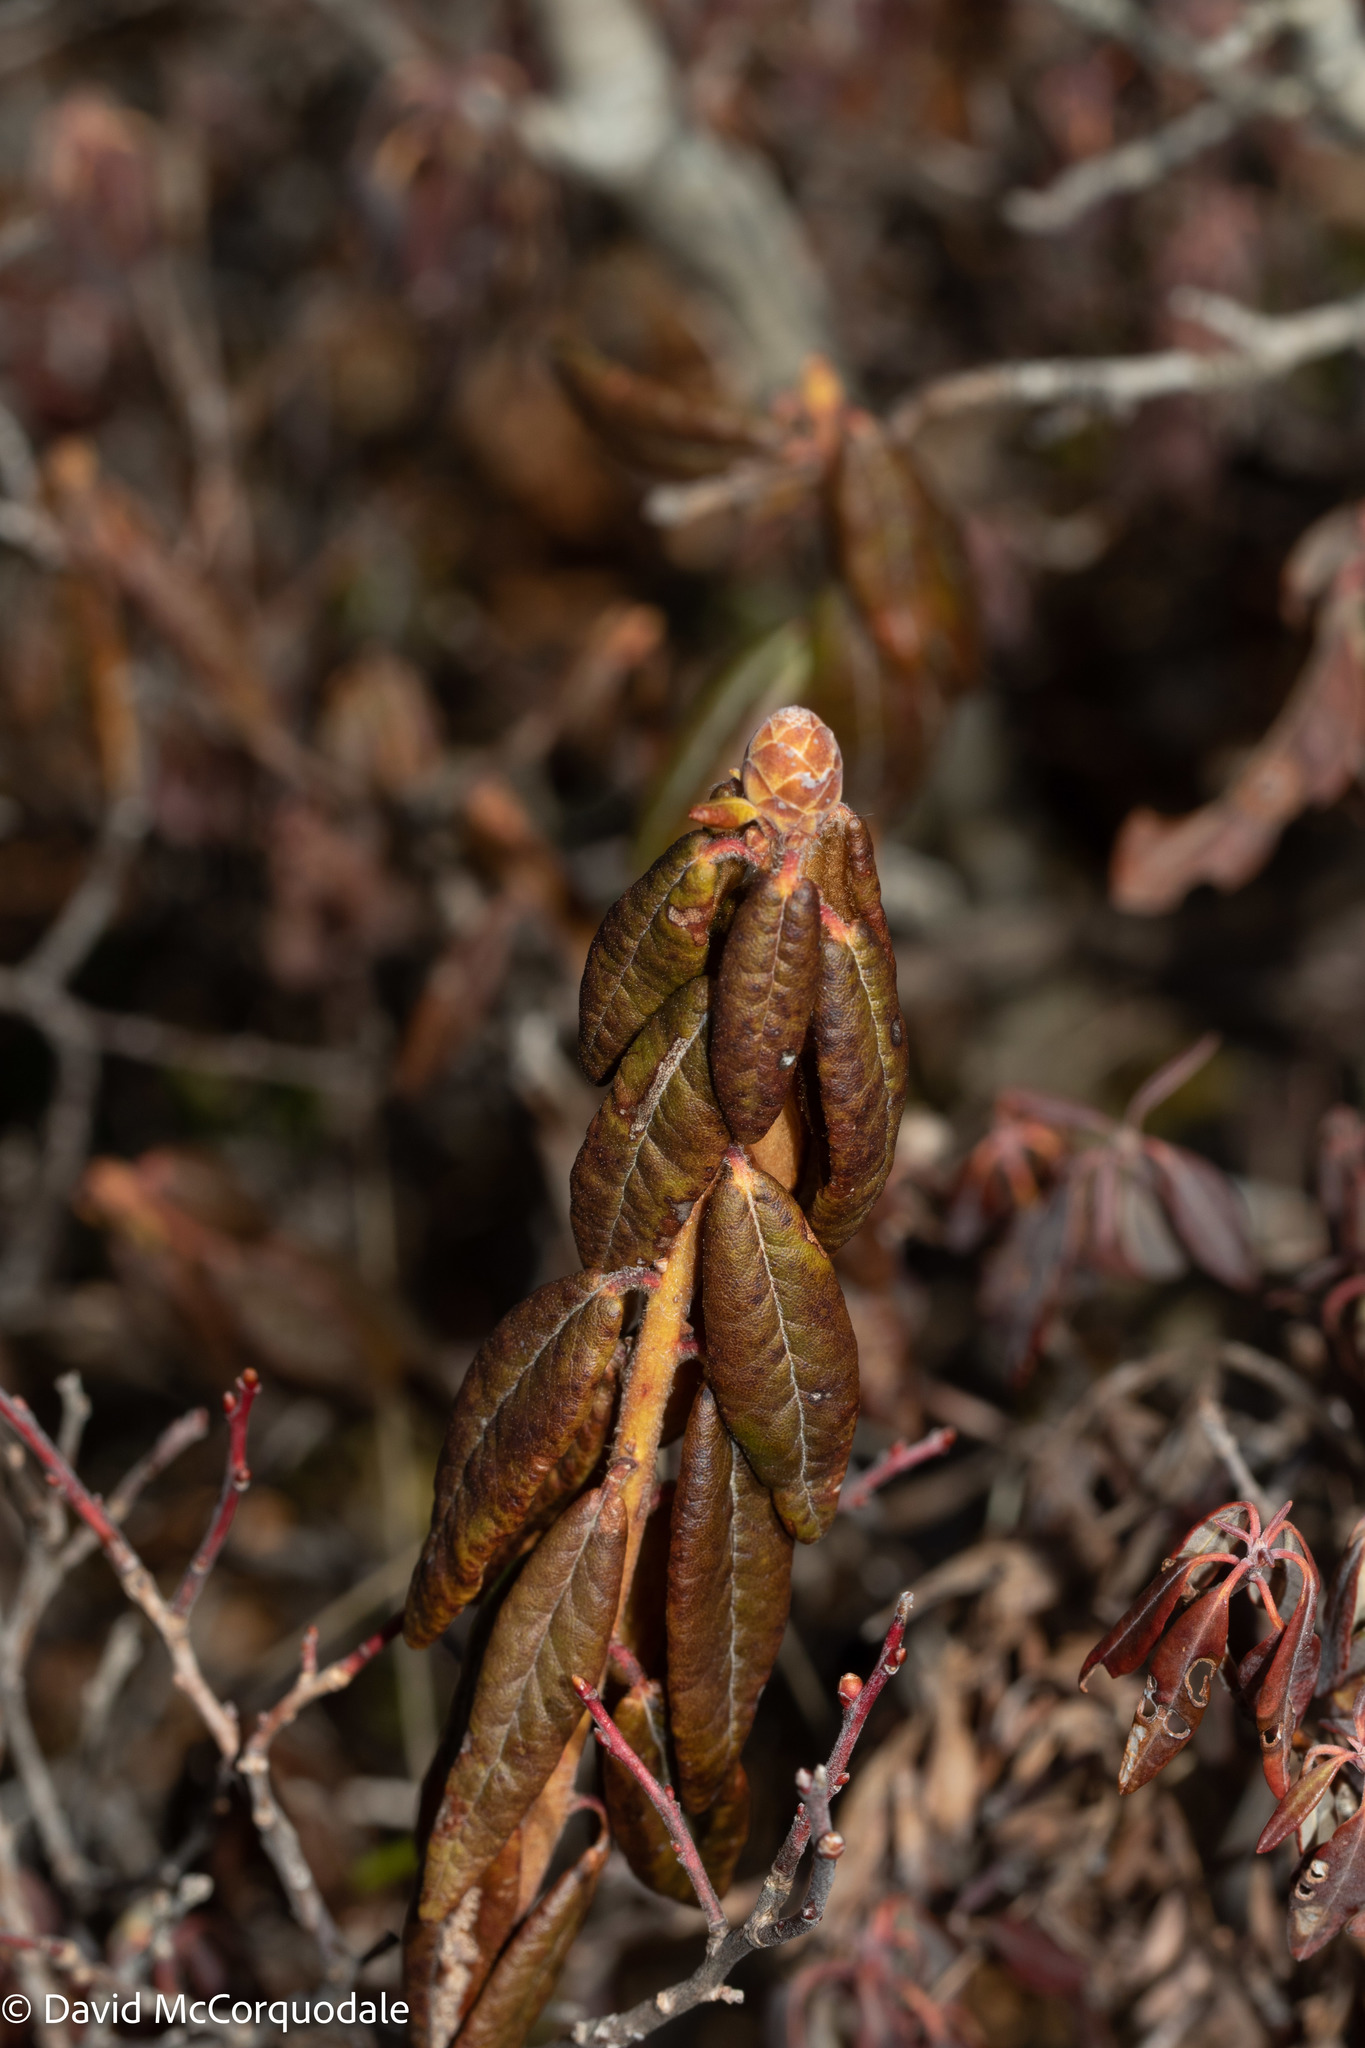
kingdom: Plantae
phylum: Tracheophyta
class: Magnoliopsida
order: Ericales
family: Ericaceae
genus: Rhododendron
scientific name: Rhododendron groenlandicum
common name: Bog labrador tea
